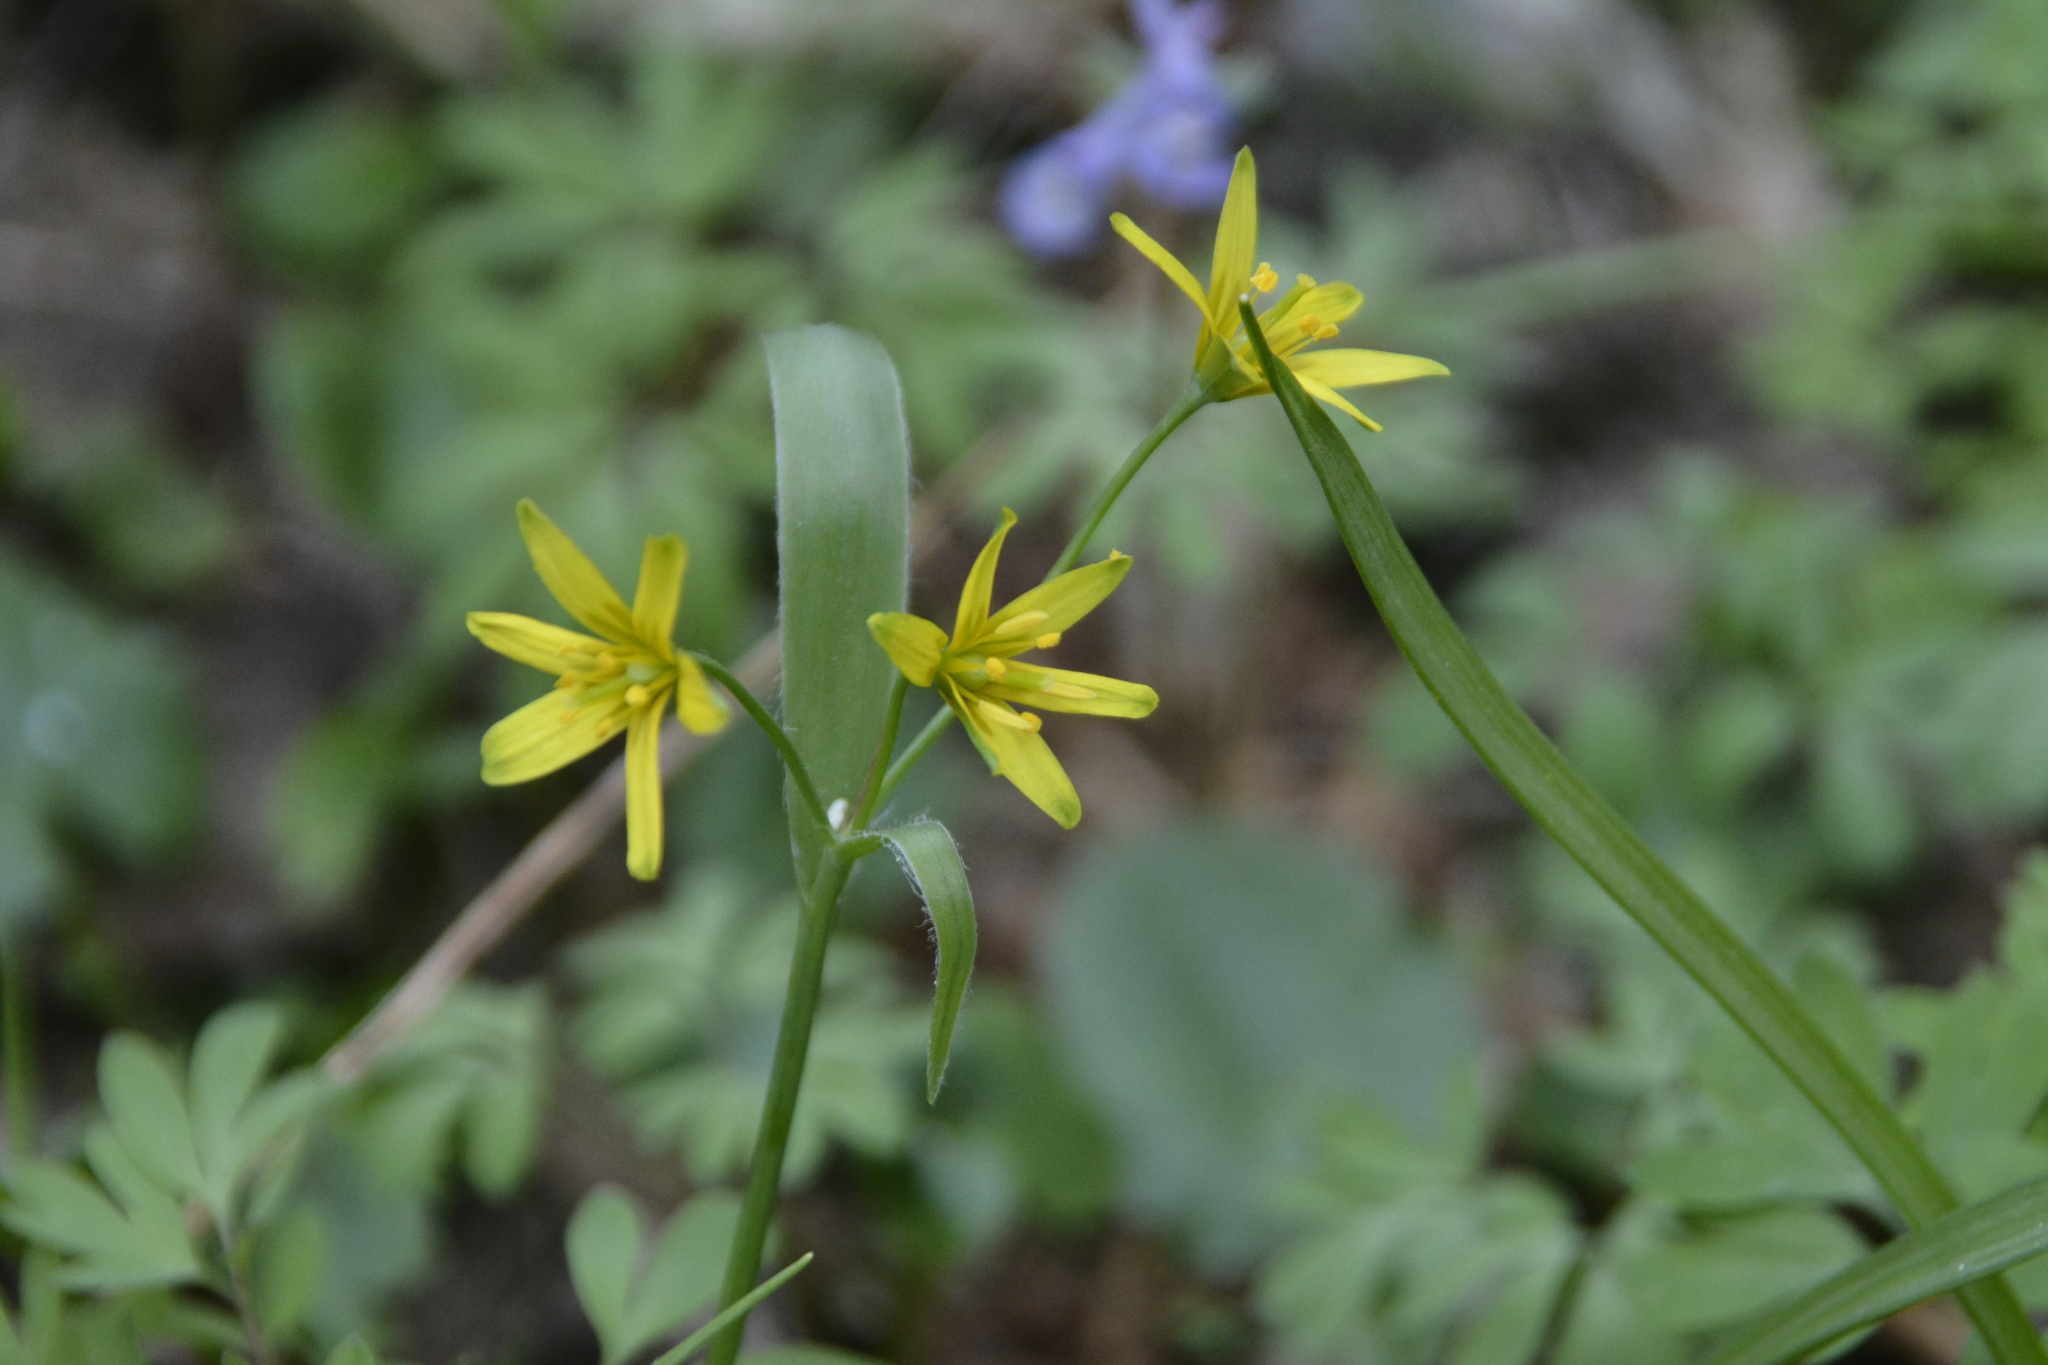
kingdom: Plantae
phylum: Tracheophyta
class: Liliopsida
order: Liliales
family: Liliaceae
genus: Gagea
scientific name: Gagea lutea
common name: Yellow star-of-bethlehem
